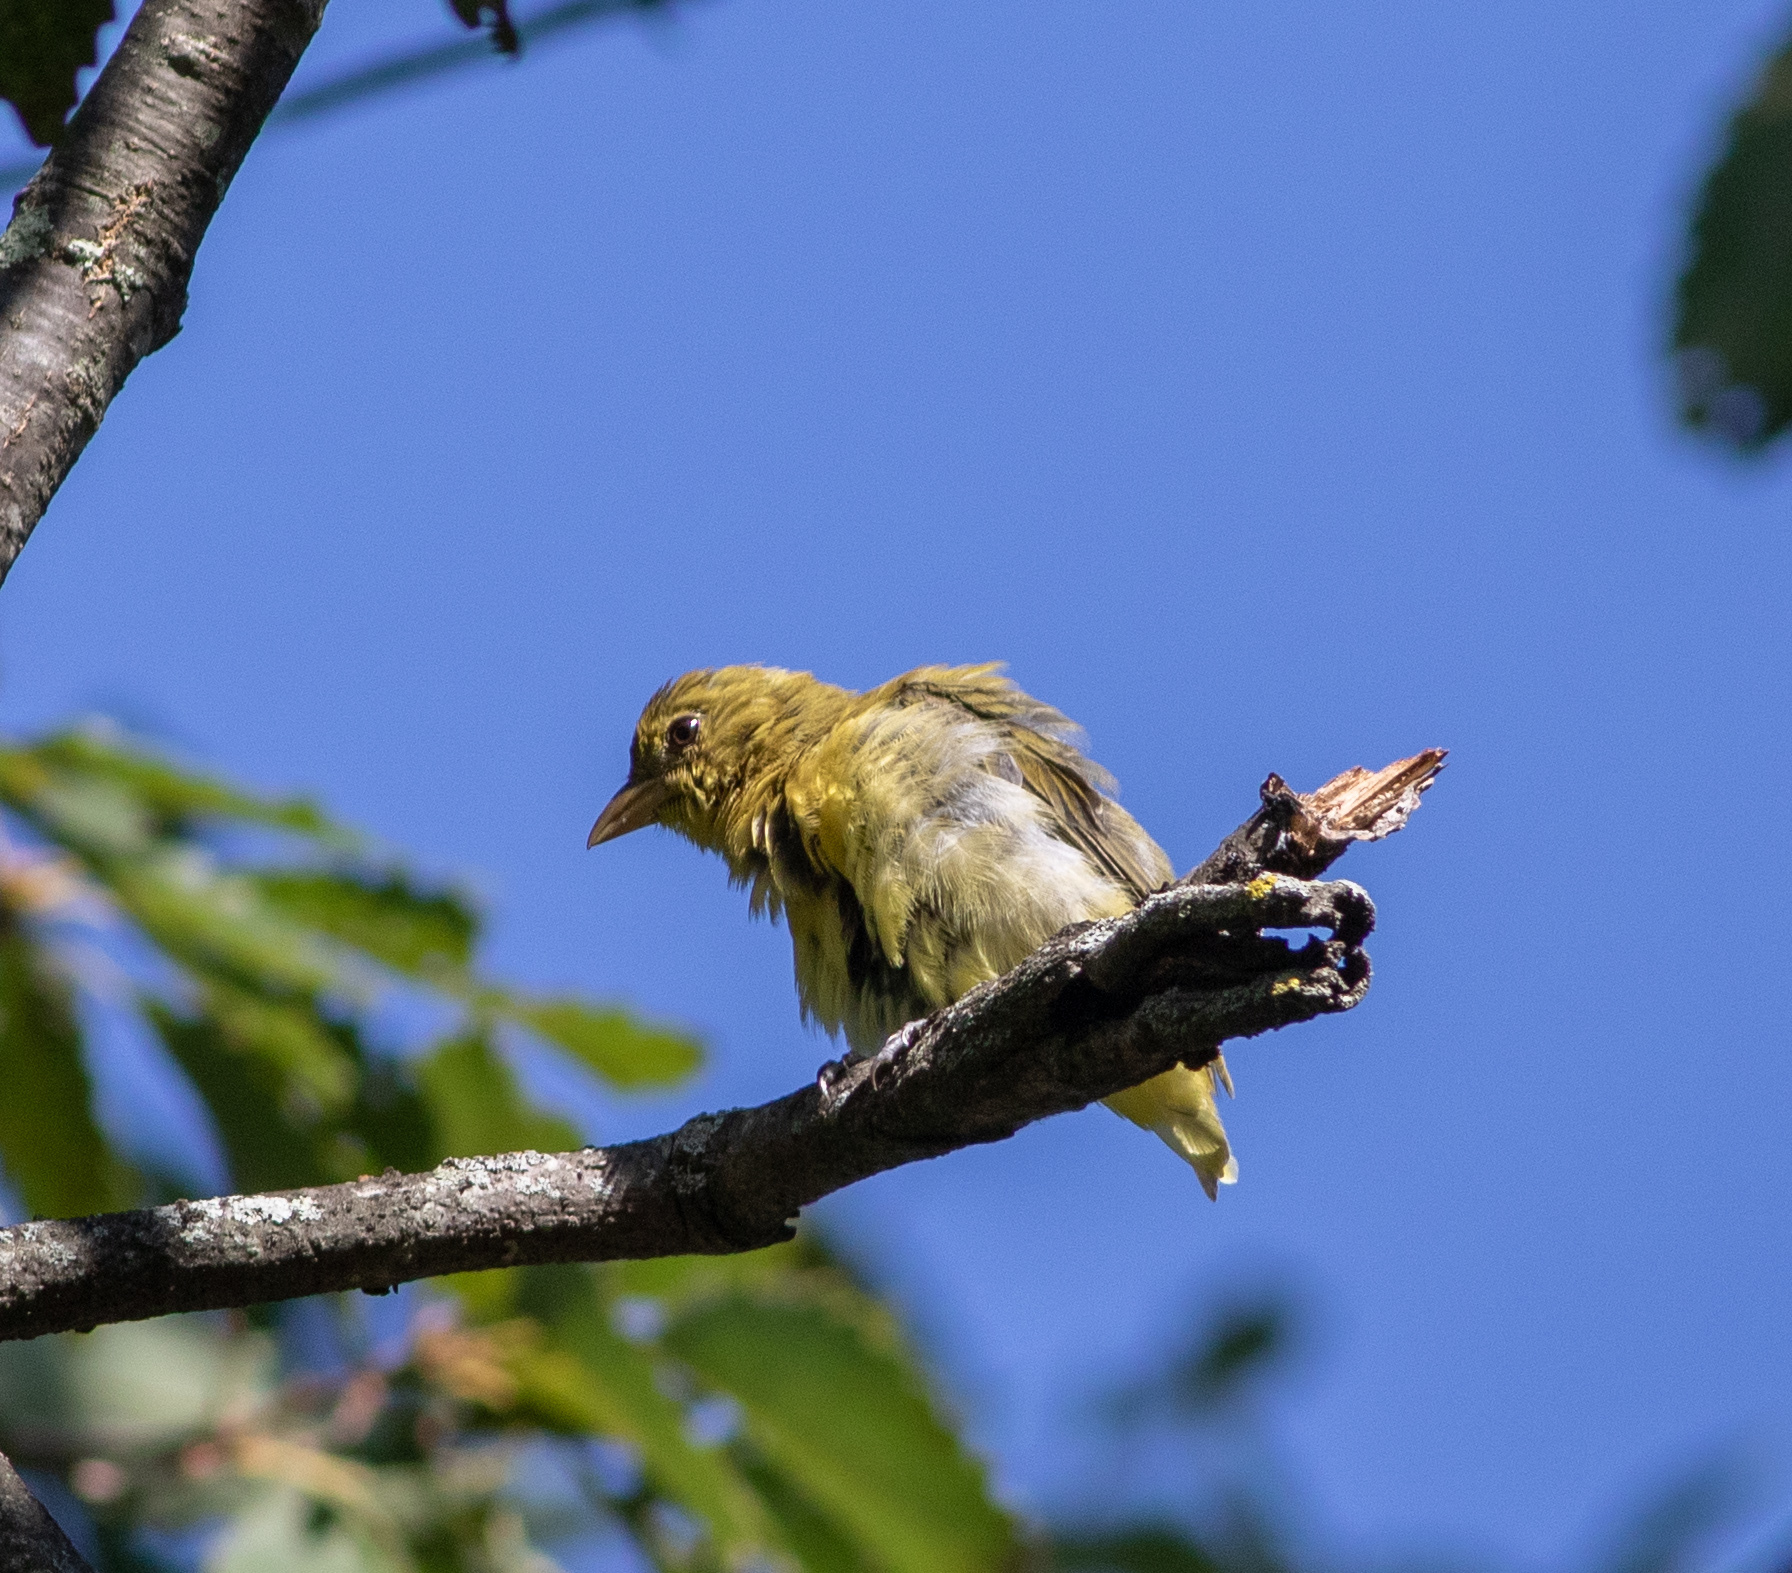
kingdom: Animalia
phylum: Chordata
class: Aves
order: Passeriformes
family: Cardinalidae
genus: Piranga
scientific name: Piranga olivacea
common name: Scarlet tanager
